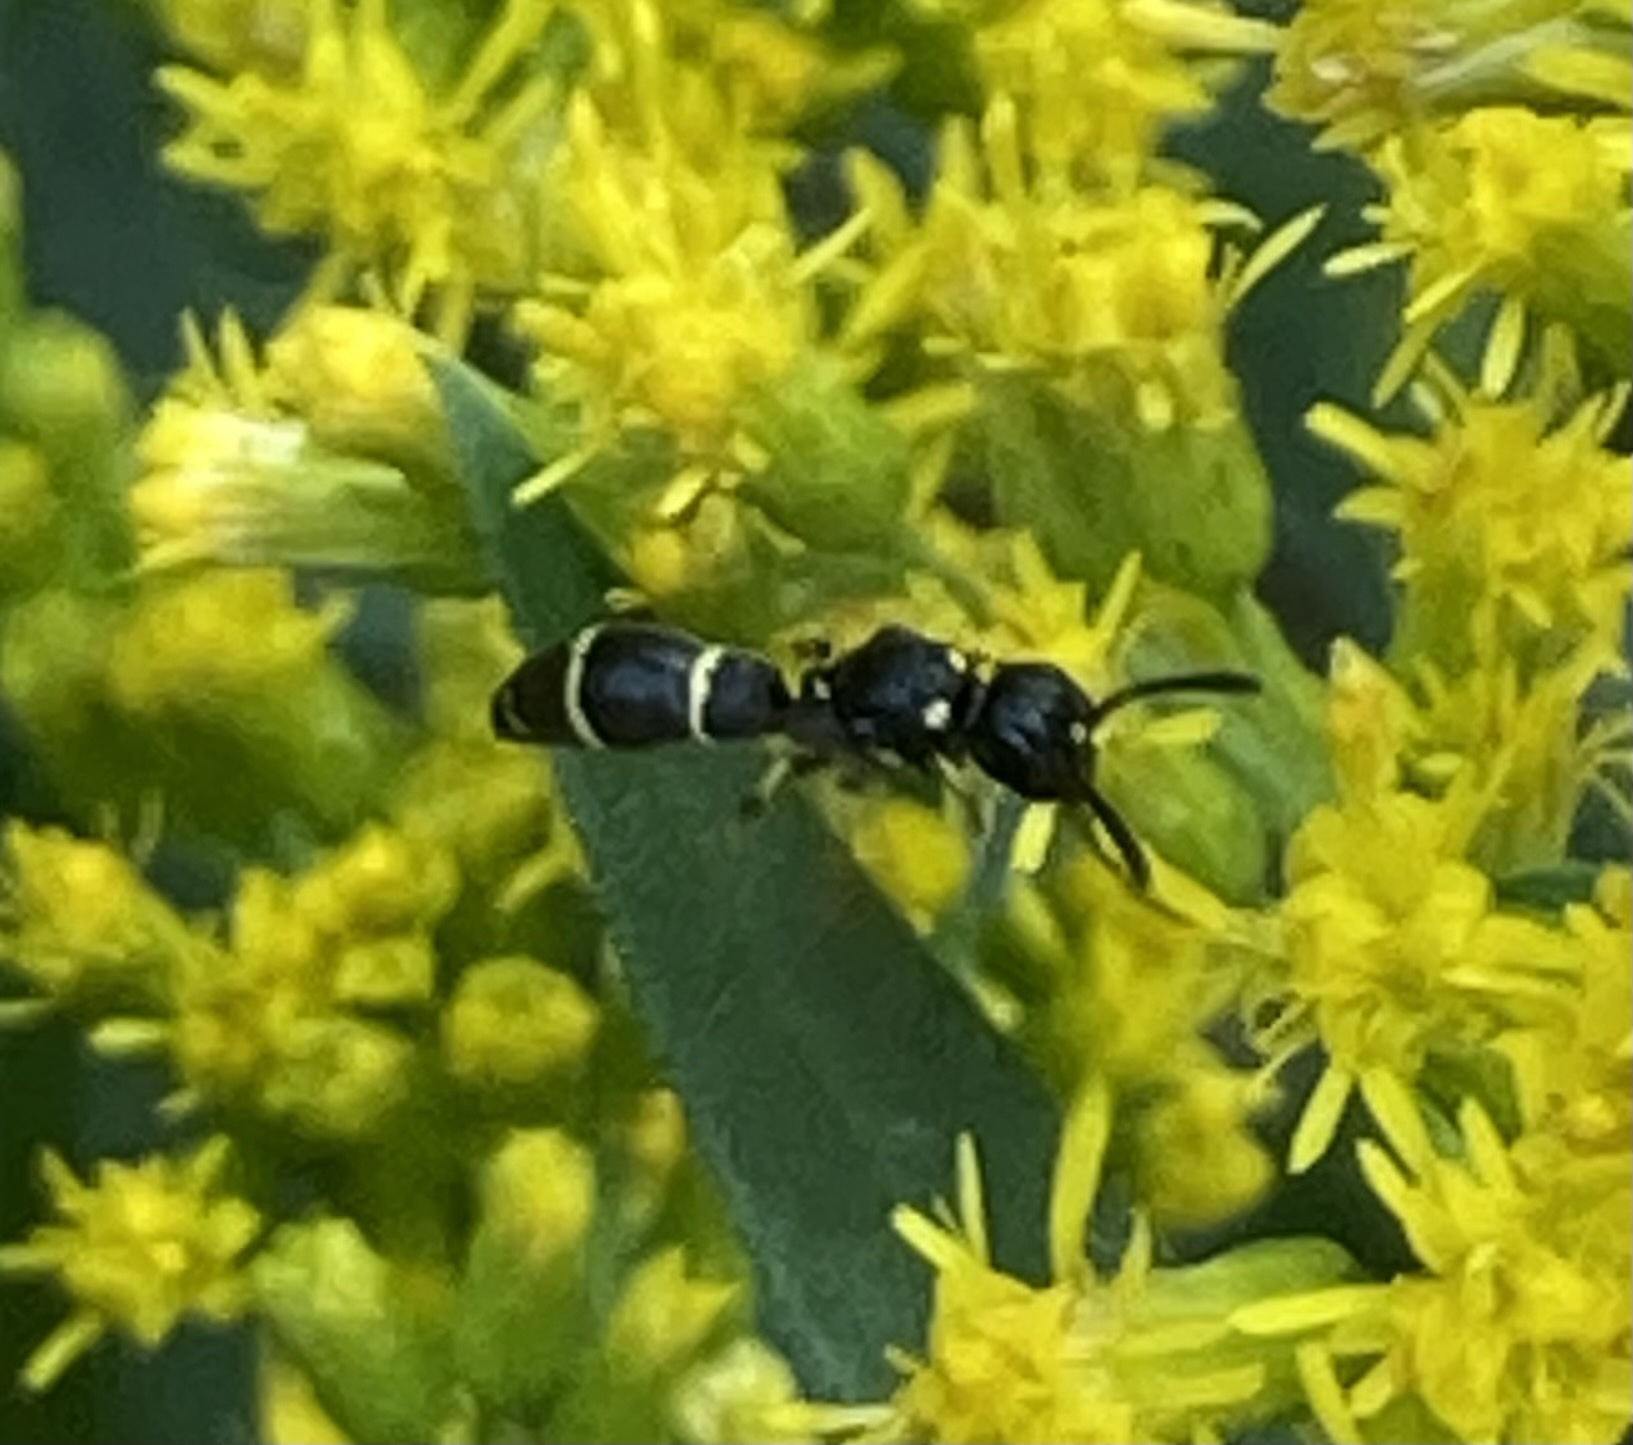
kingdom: Animalia
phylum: Arthropoda
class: Insecta
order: Hymenoptera
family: Eumenidae
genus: Symmorphus
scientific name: Symmorphus
